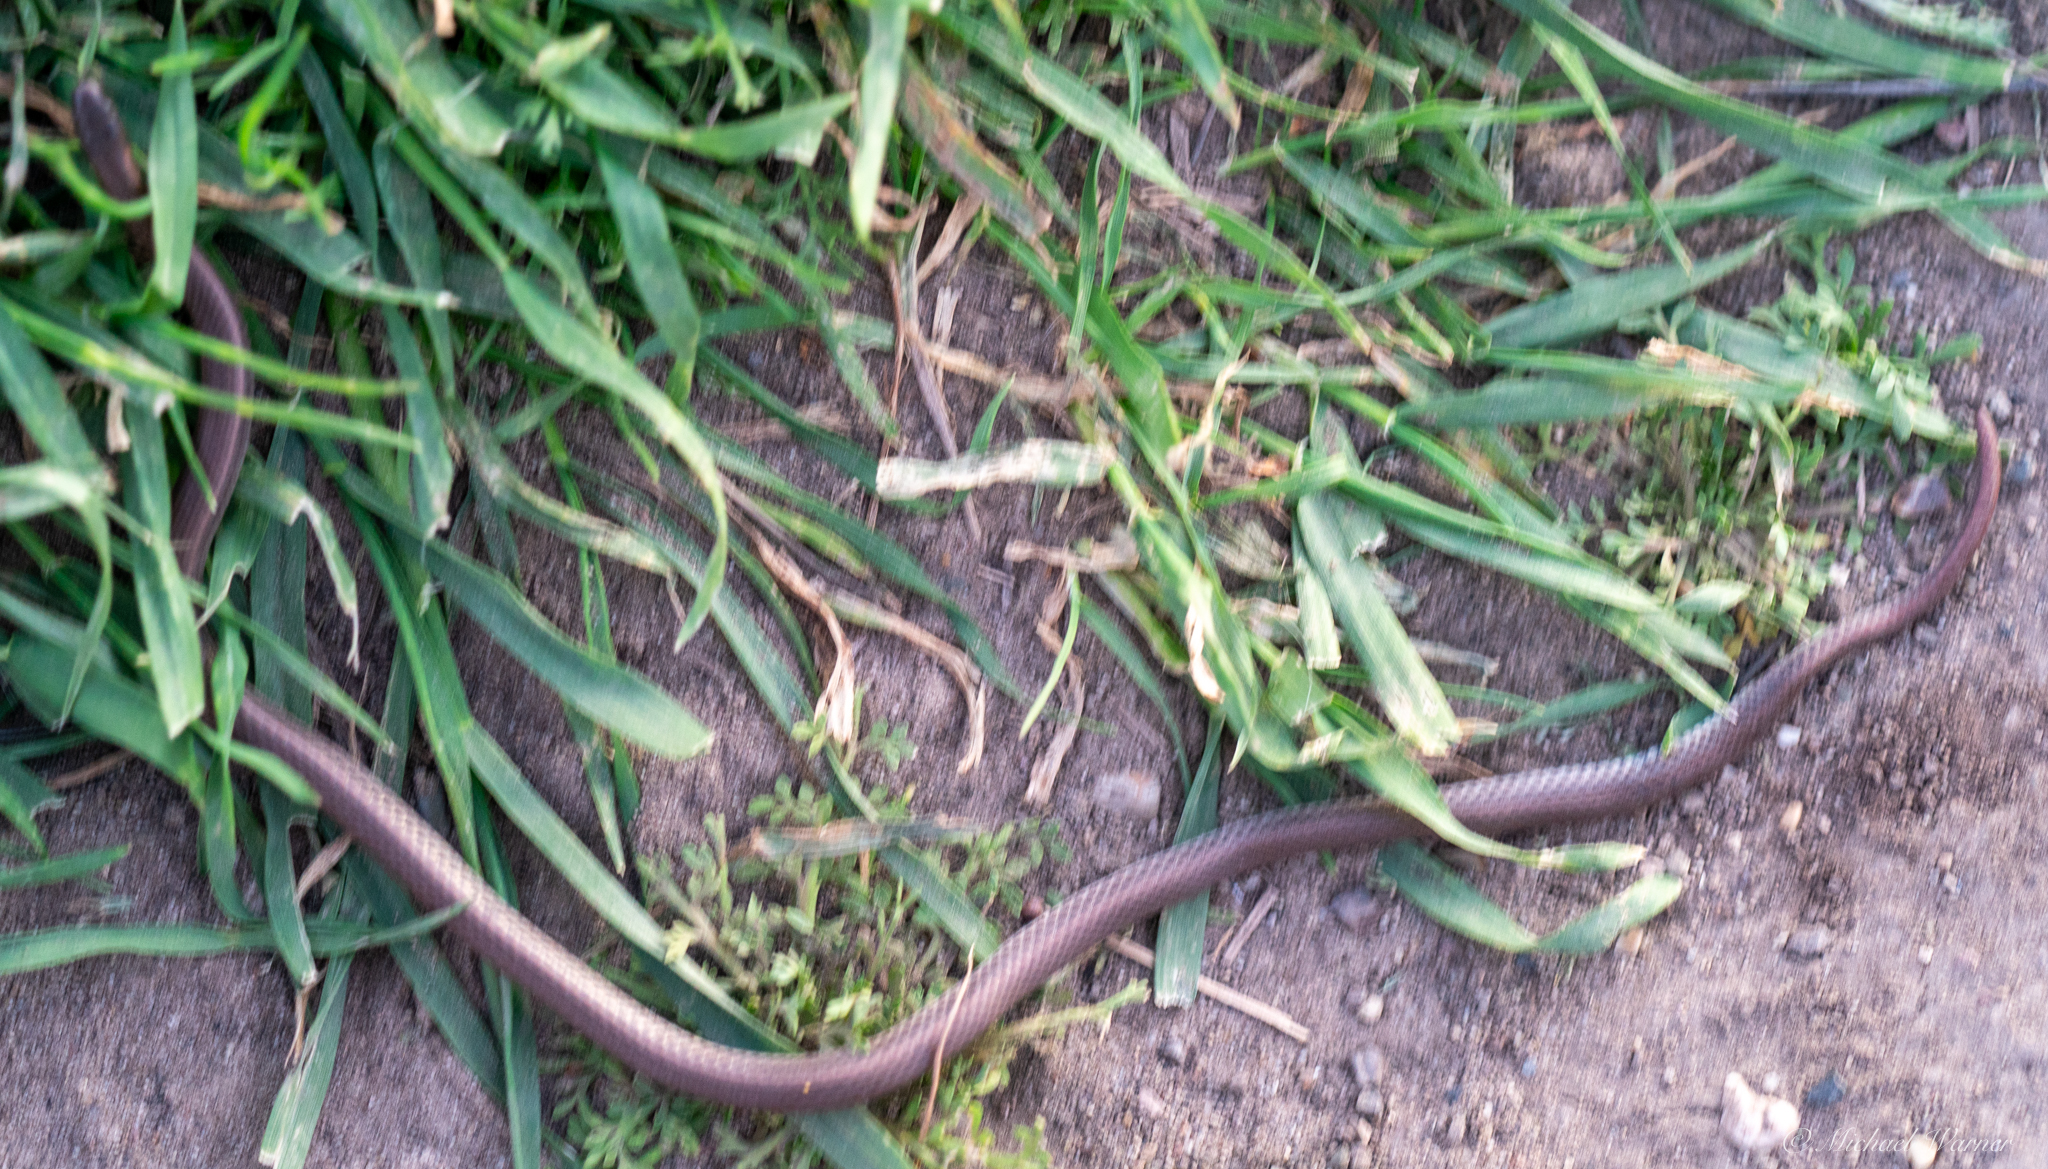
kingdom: Animalia
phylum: Chordata
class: Squamata
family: Colubridae
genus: Contia
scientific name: Contia tenuis
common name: Sharptail snake
